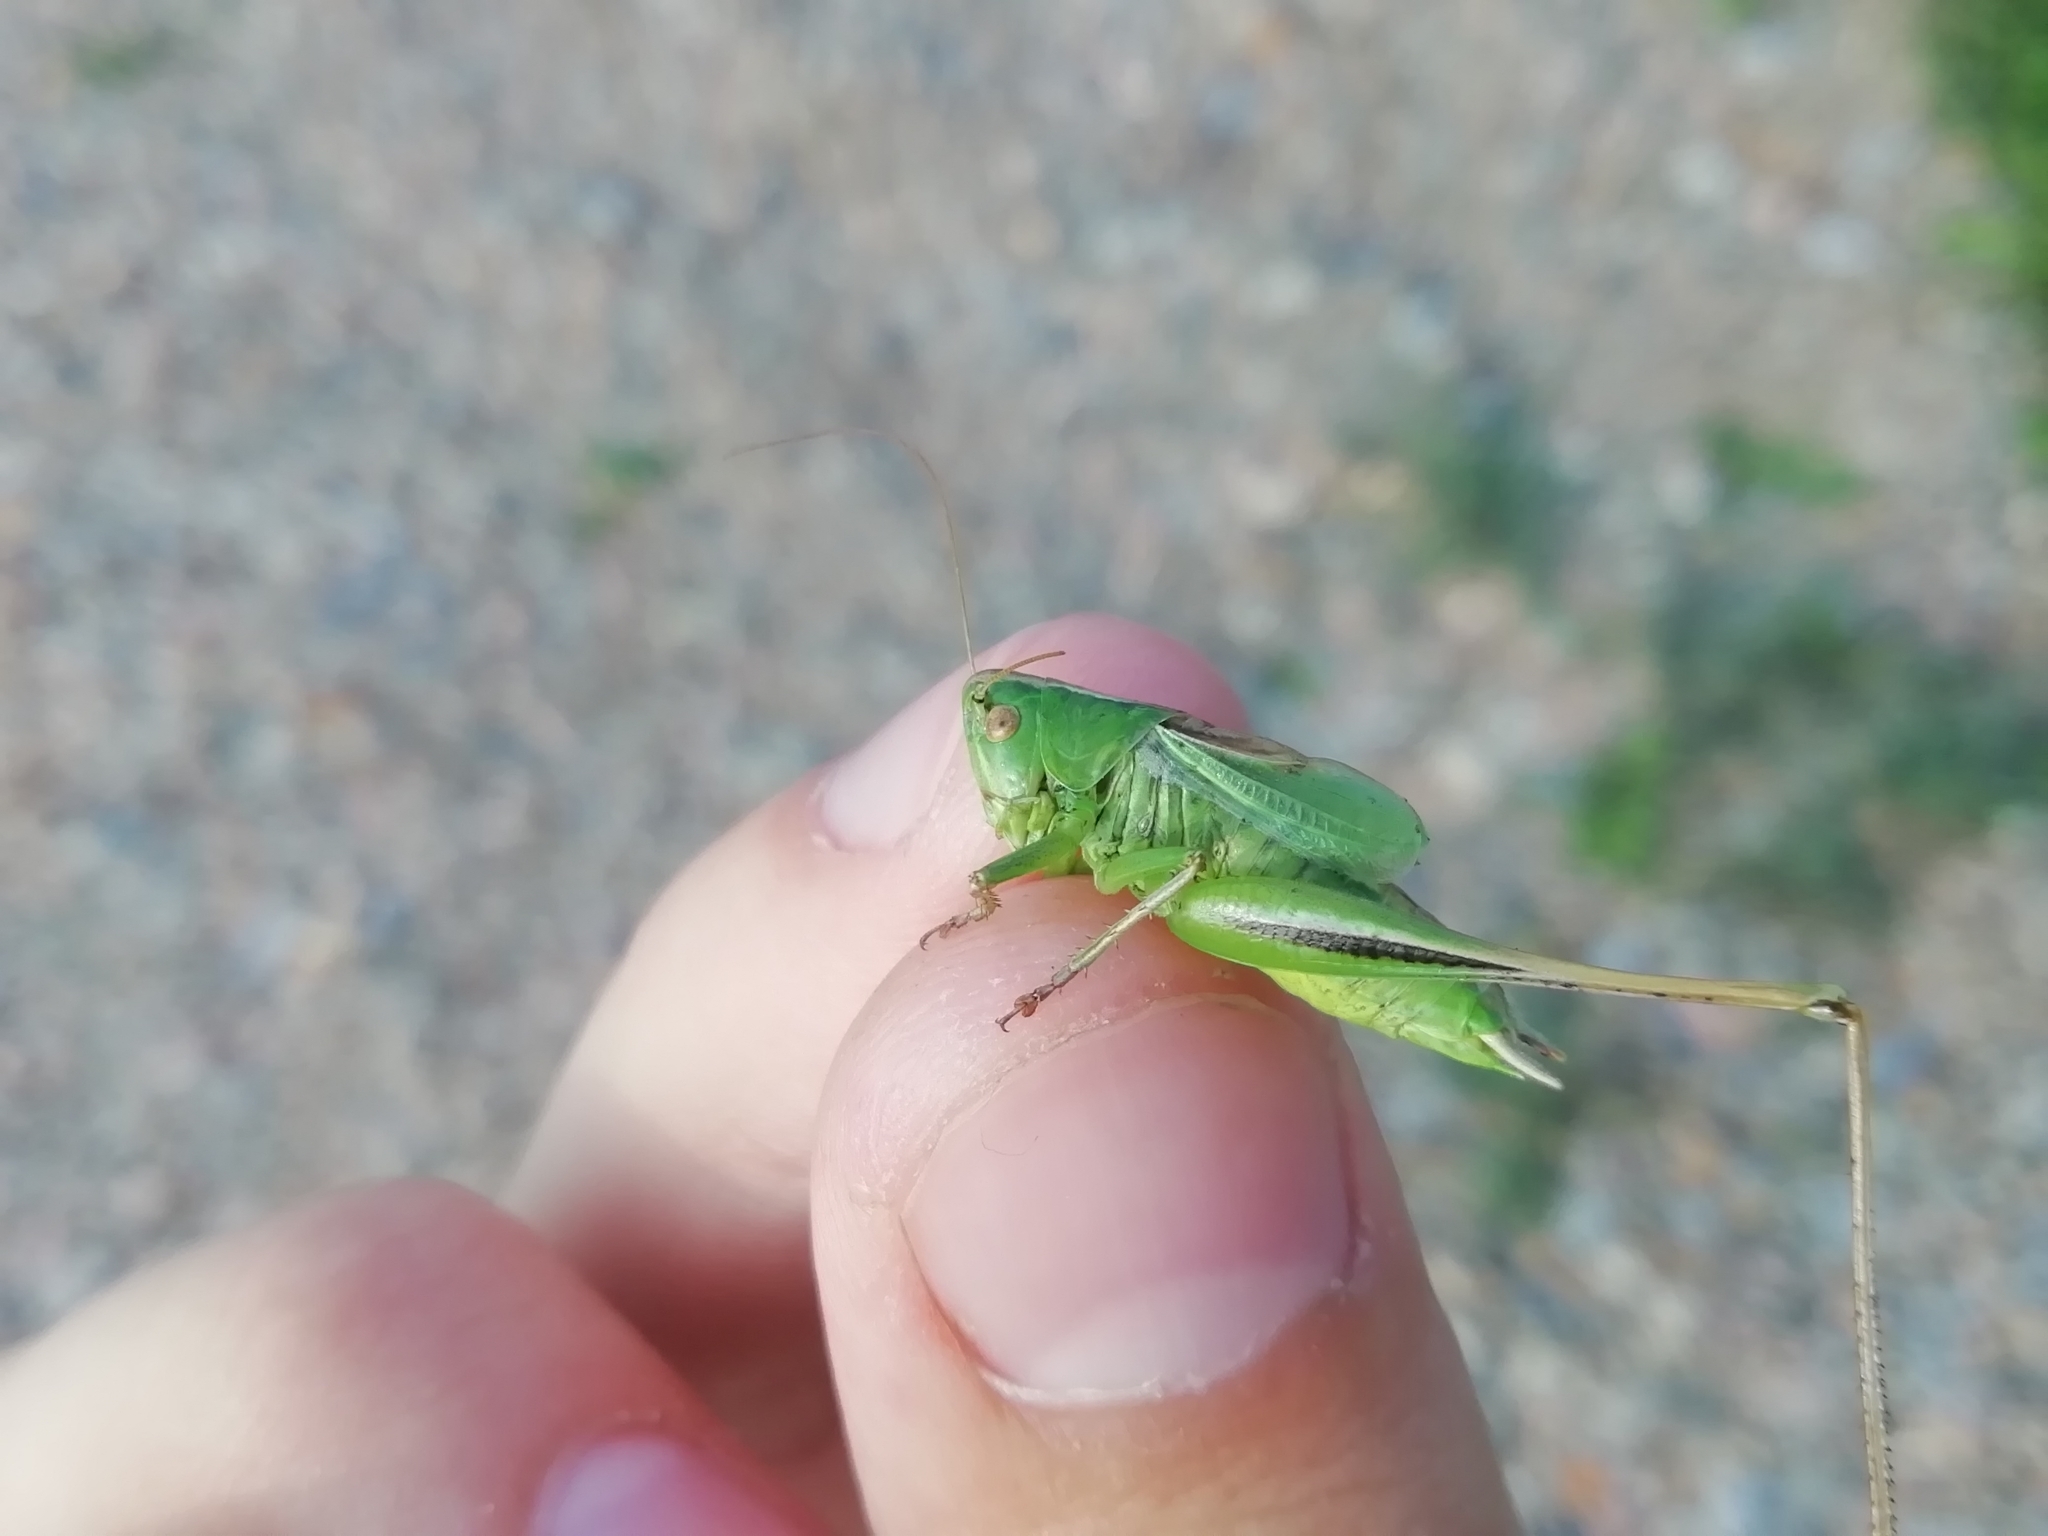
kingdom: Animalia
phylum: Arthropoda
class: Insecta
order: Orthoptera
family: Tettigoniidae
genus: Bicolorana
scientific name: Bicolorana bicolor
